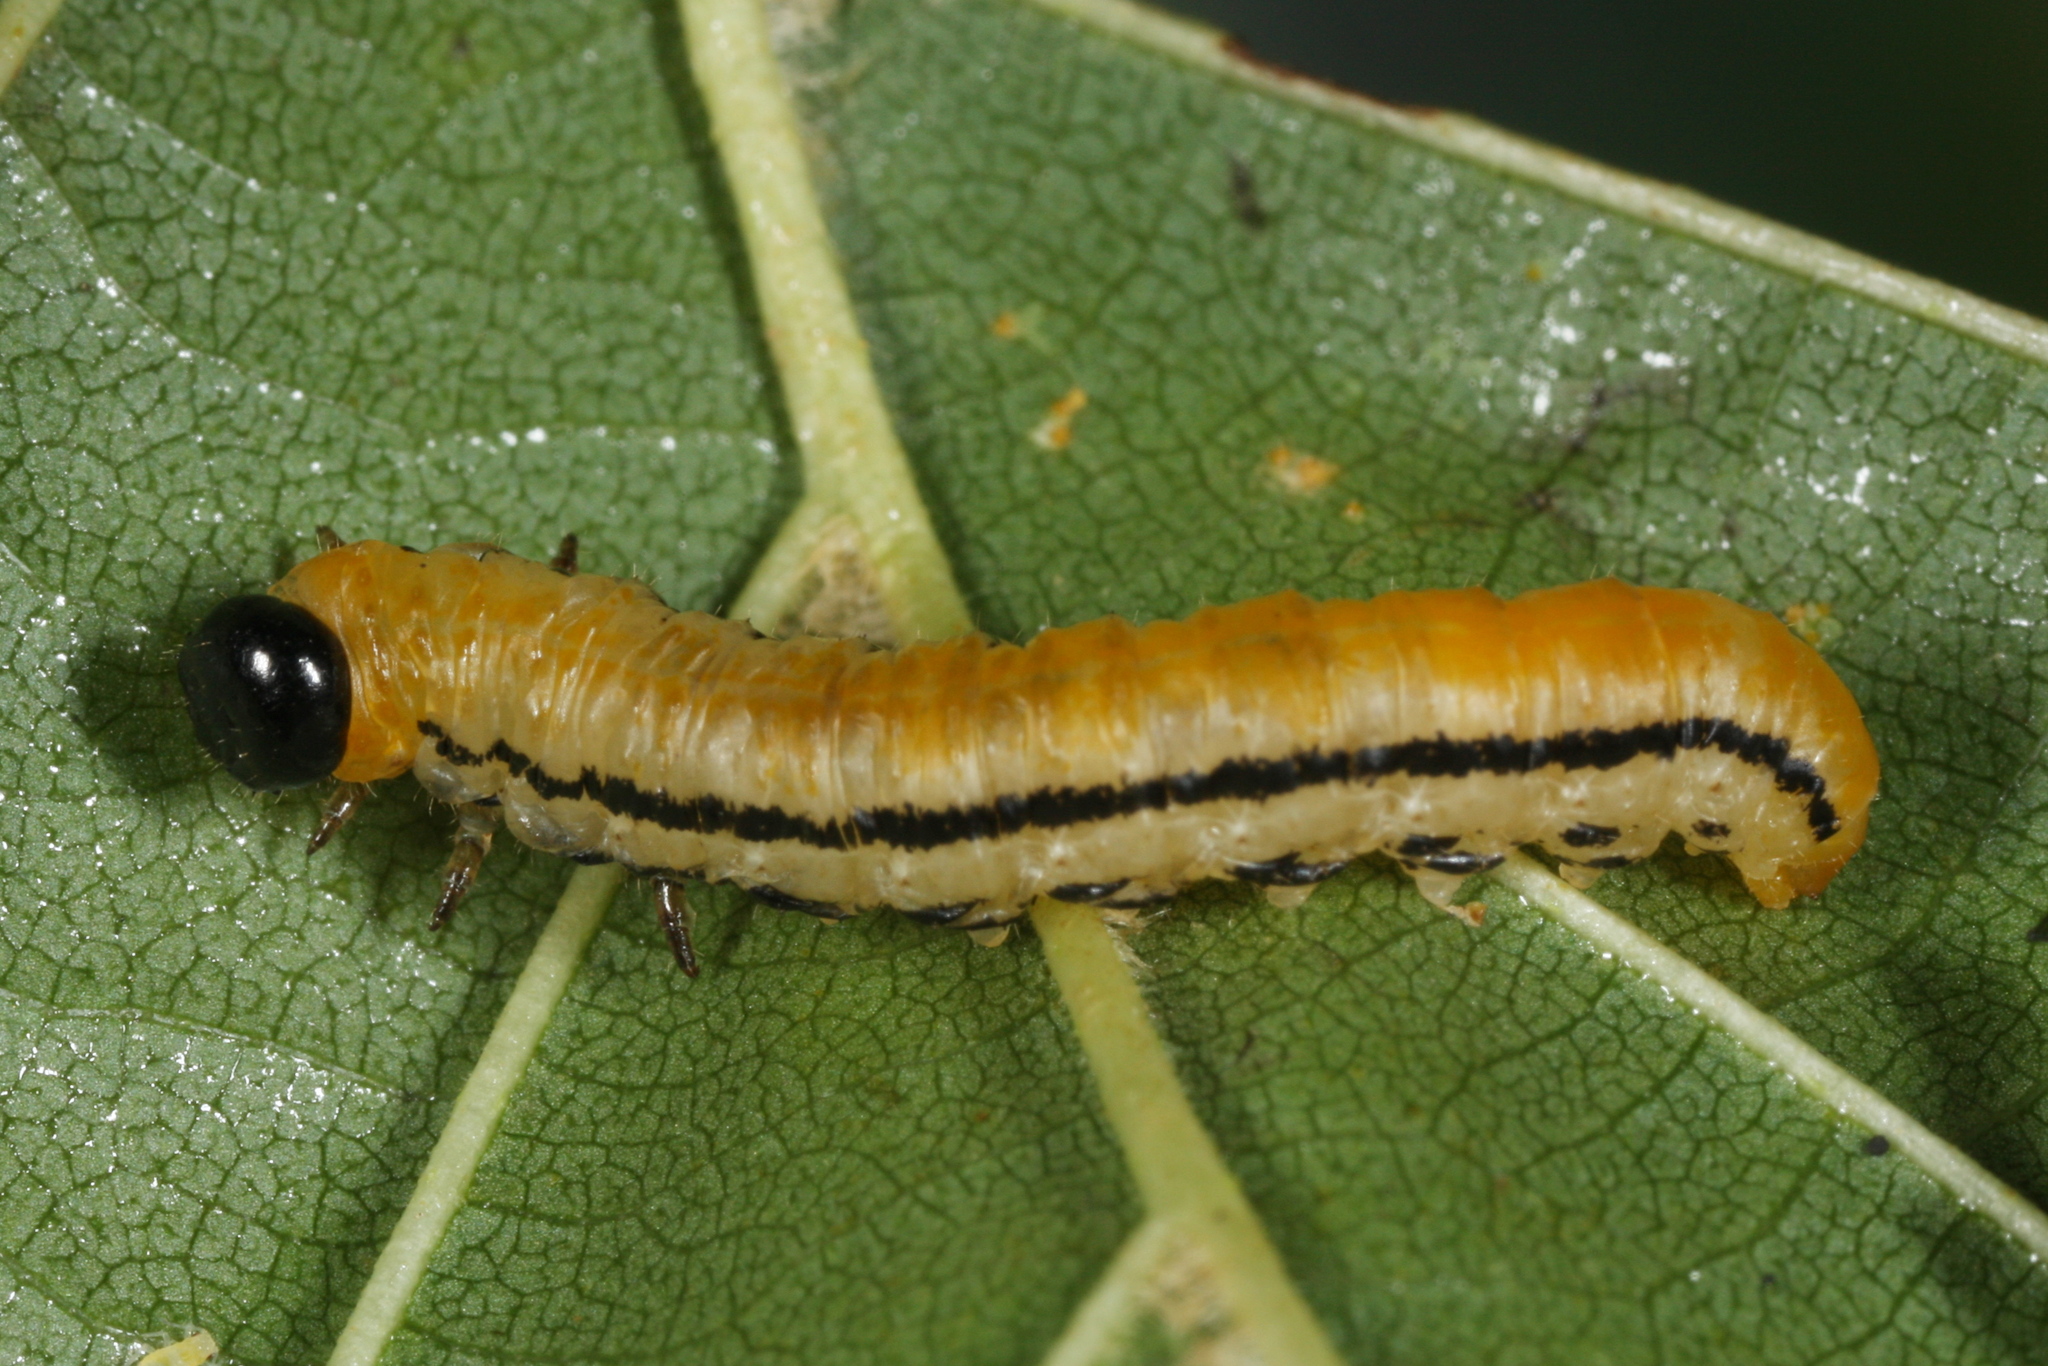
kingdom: Animalia
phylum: Arthropoda
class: Insecta
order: Hymenoptera
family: Tenthredinidae
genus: Hemichroa
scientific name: Hemichroa crocea
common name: Striped alder sawfly
